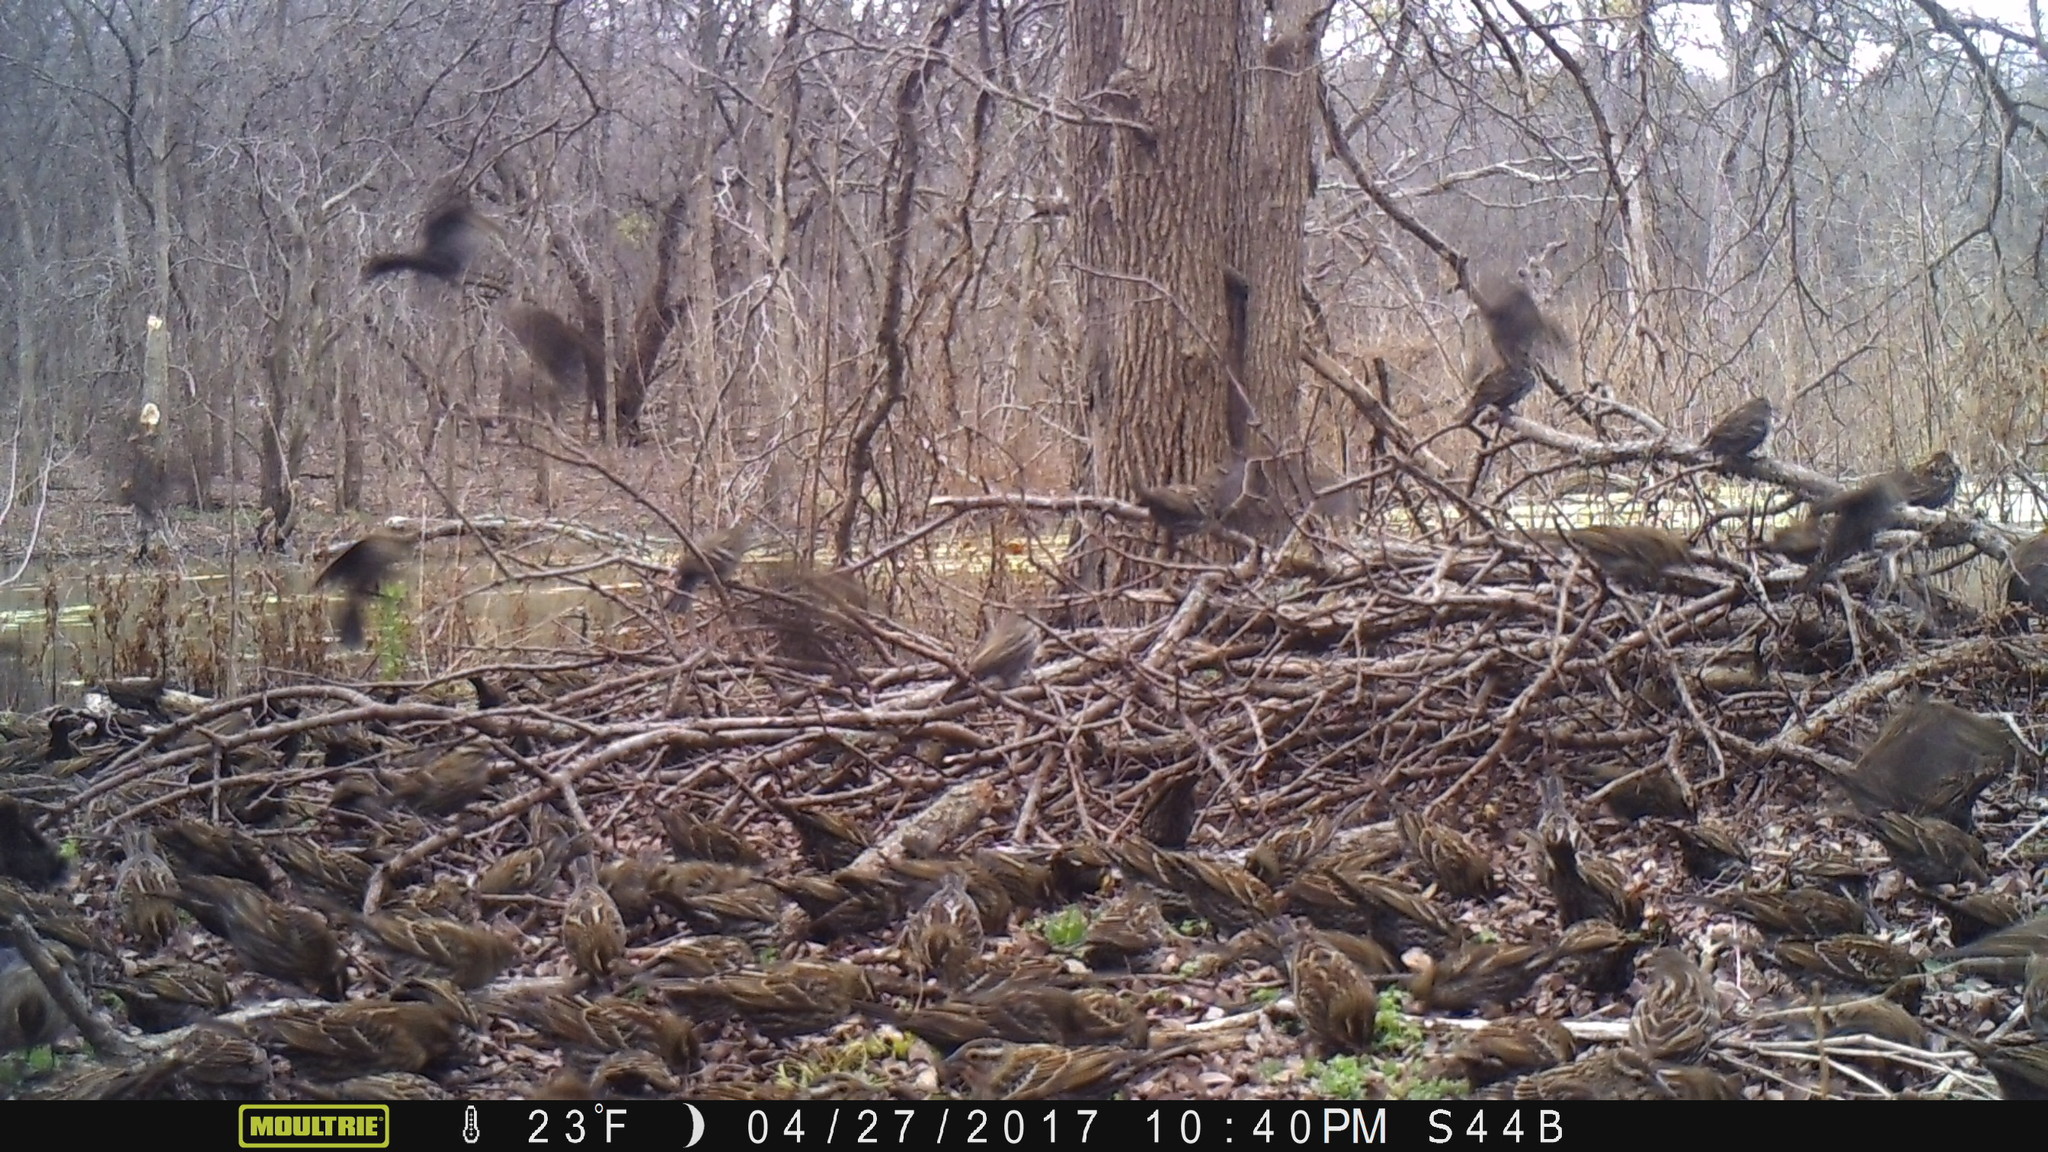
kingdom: Animalia
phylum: Chordata
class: Aves
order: Passeriformes
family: Icteridae
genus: Agelaius
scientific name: Agelaius phoeniceus
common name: Red-winged blackbird
